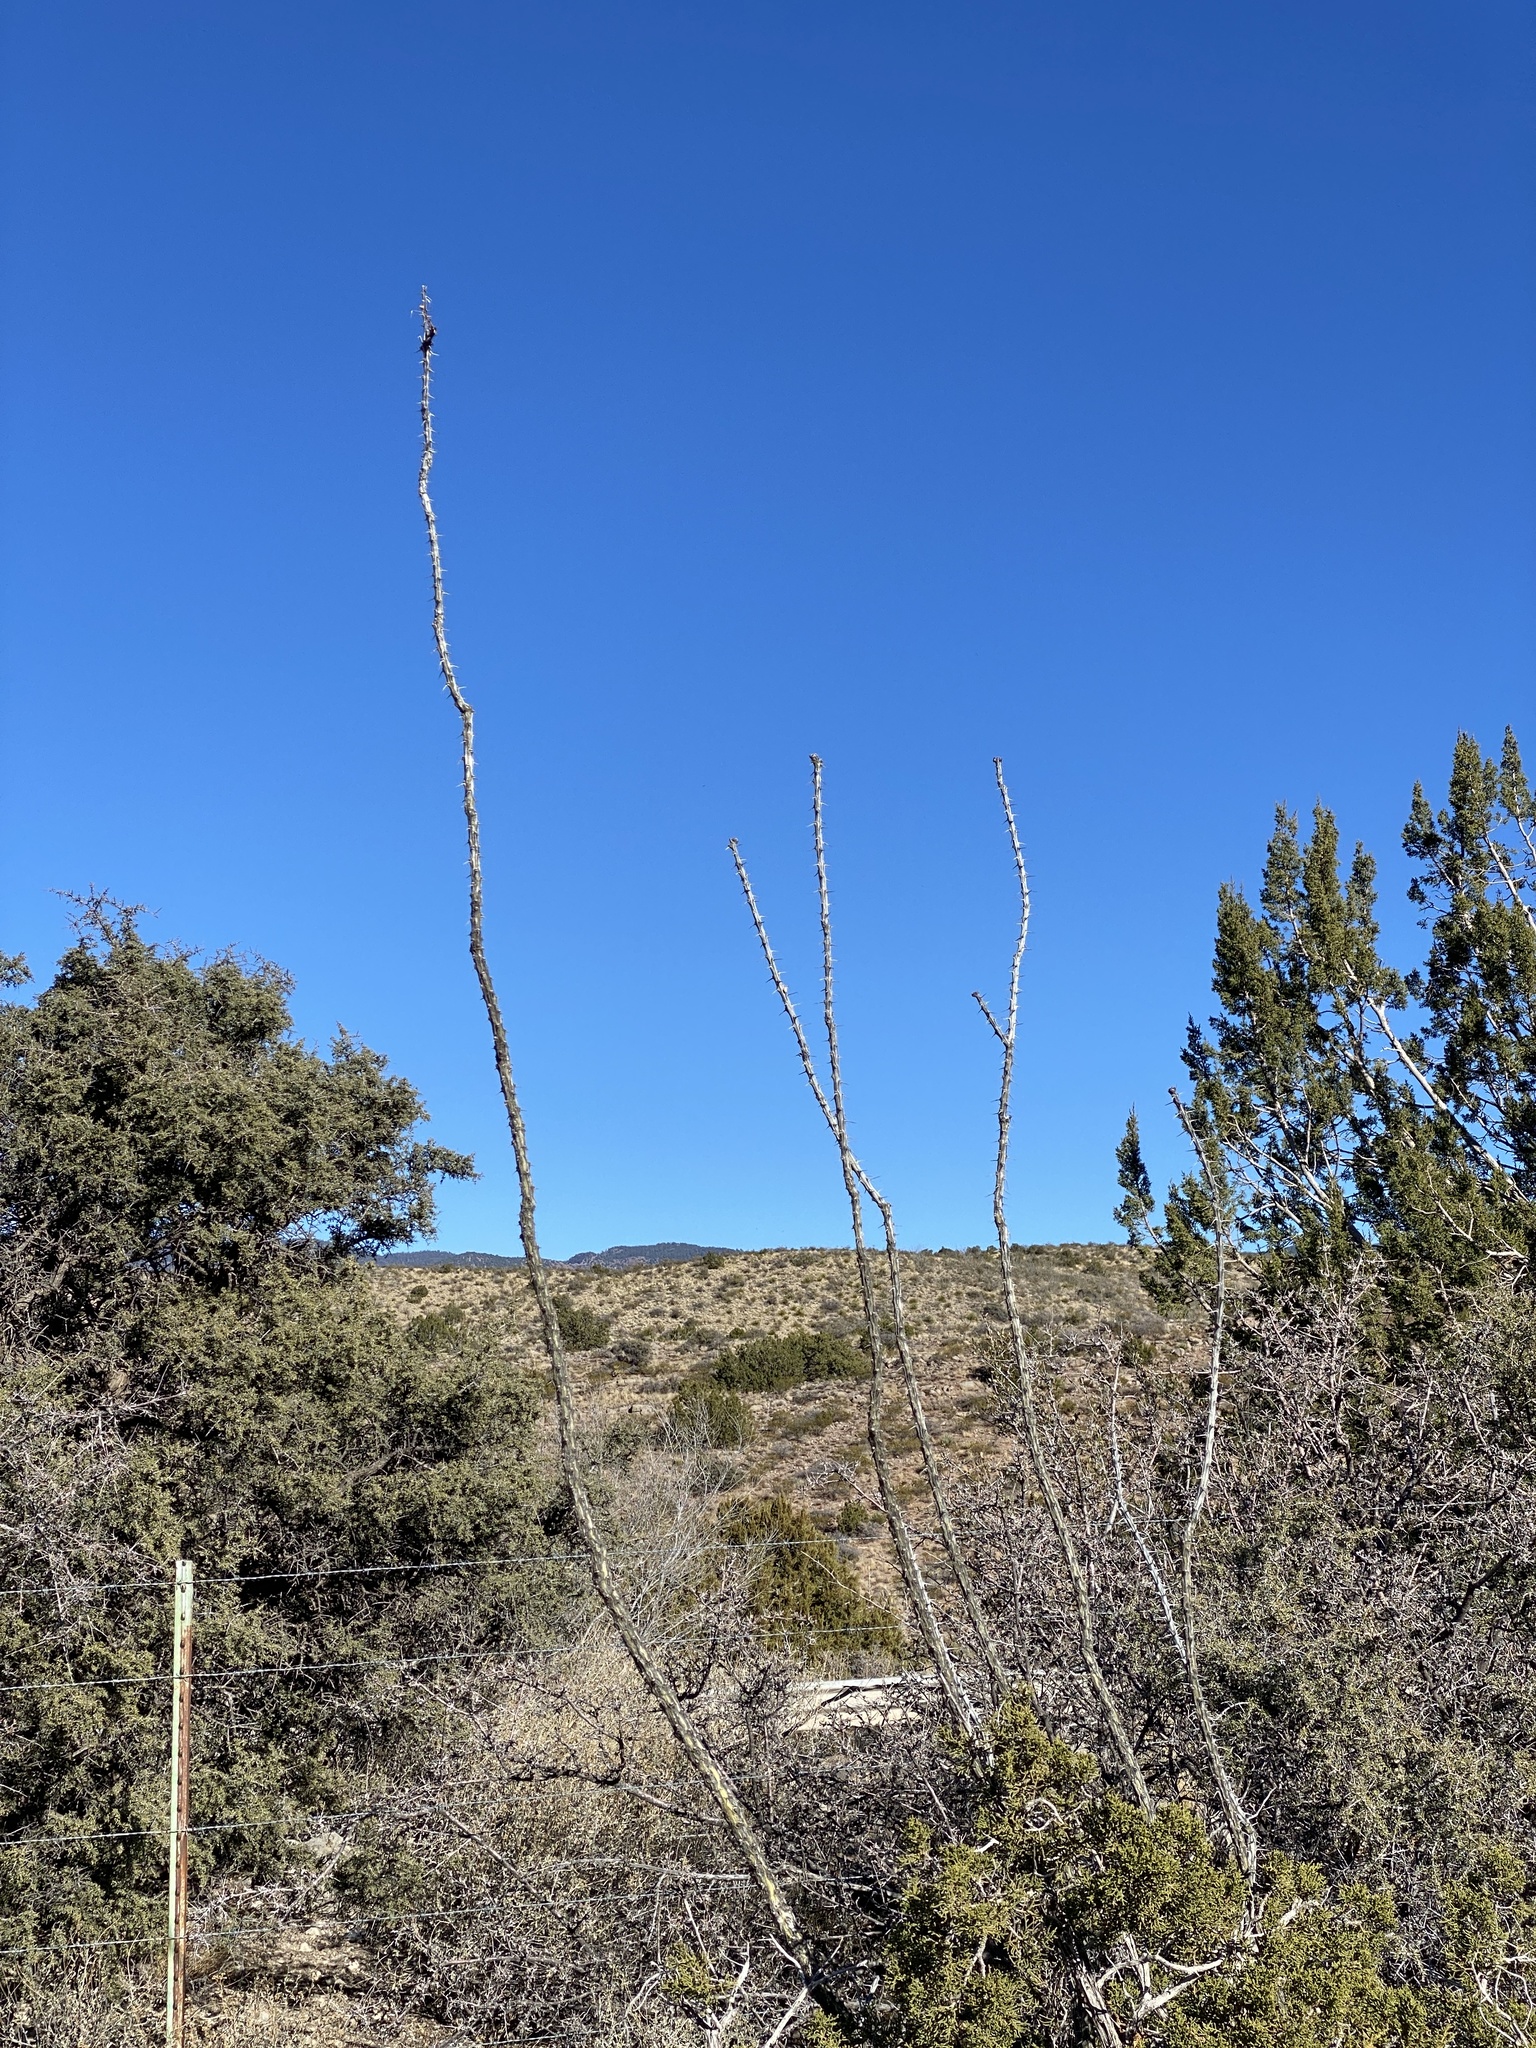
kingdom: Plantae
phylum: Tracheophyta
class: Magnoliopsida
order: Ericales
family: Fouquieriaceae
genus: Fouquieria
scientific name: Fouquieria splendens
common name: Vine-cactus
